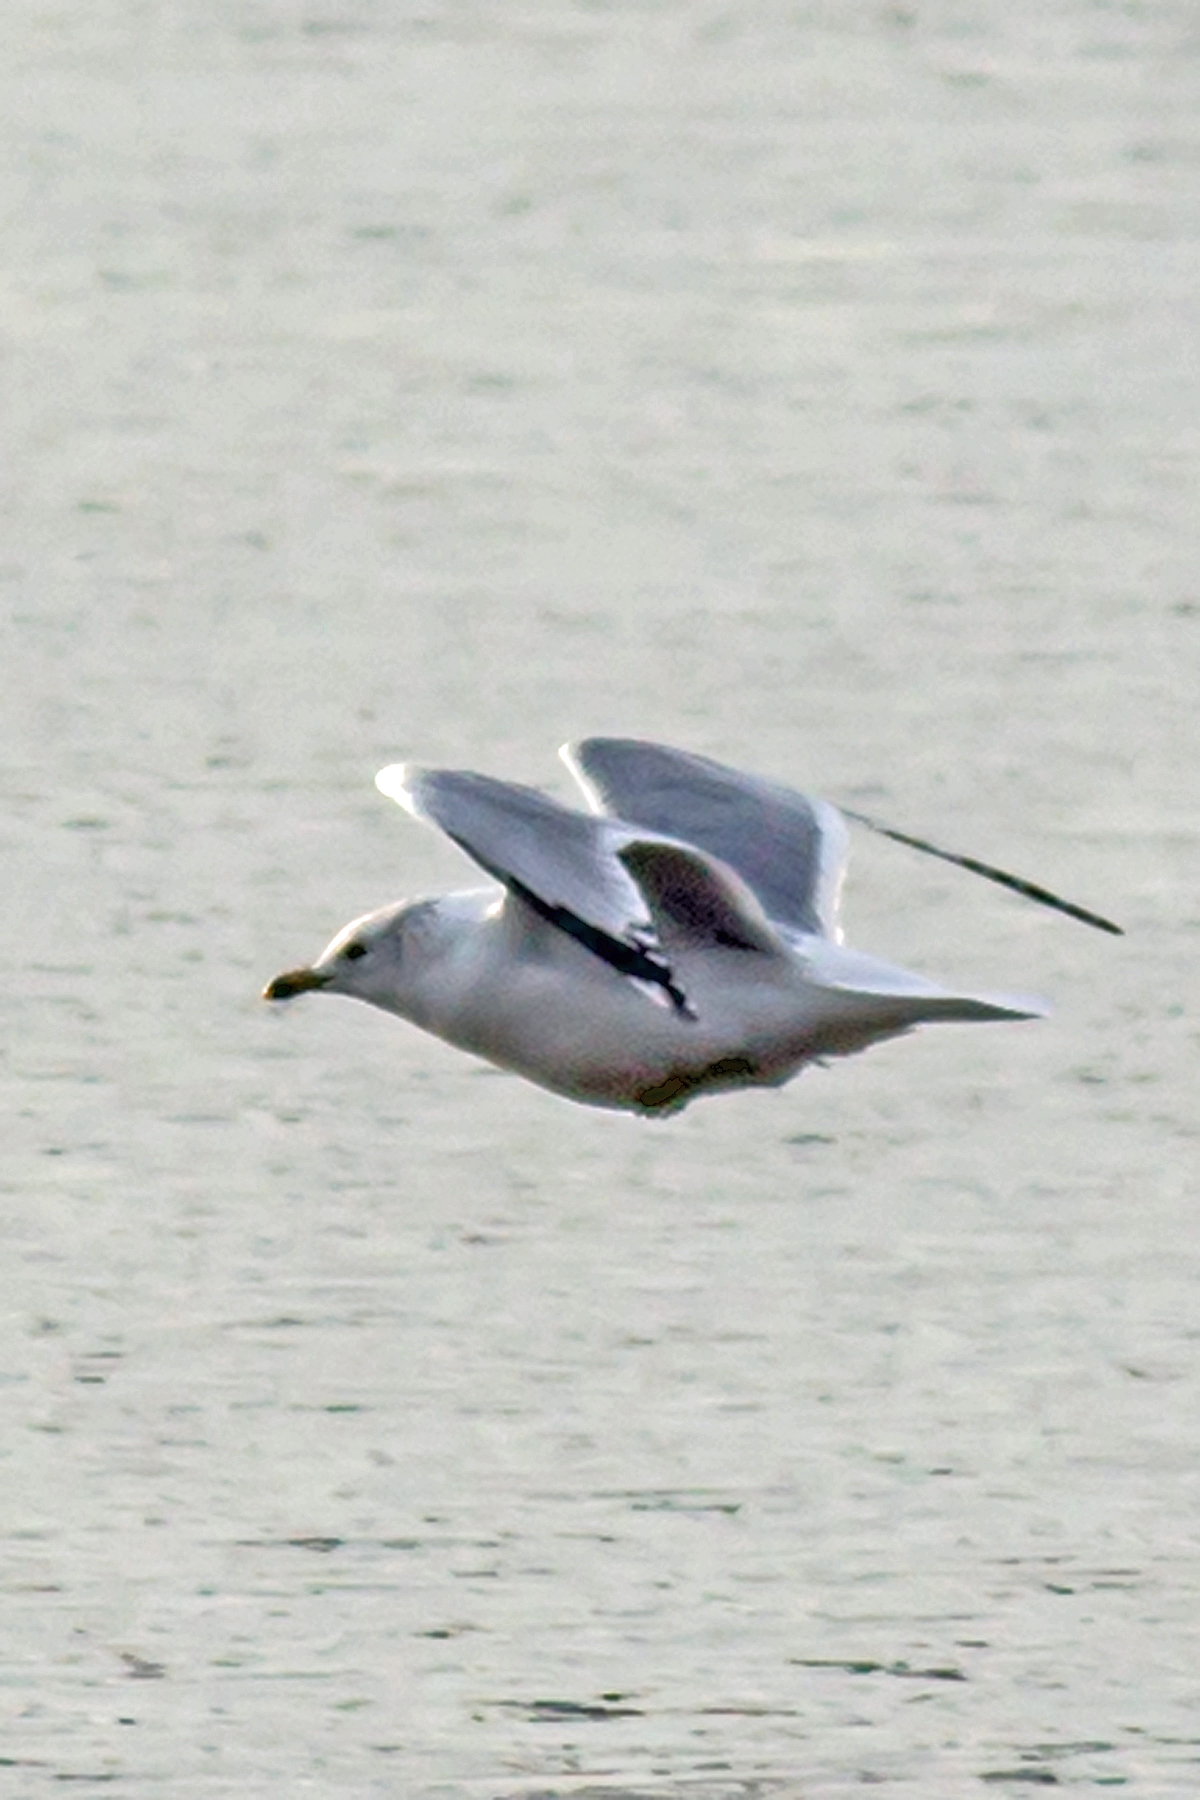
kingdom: Animalia
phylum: Chordata
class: Aves
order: Charadriiformes
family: Laridae
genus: Larus
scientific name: Larus delawarensis
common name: Ring-billed gull
